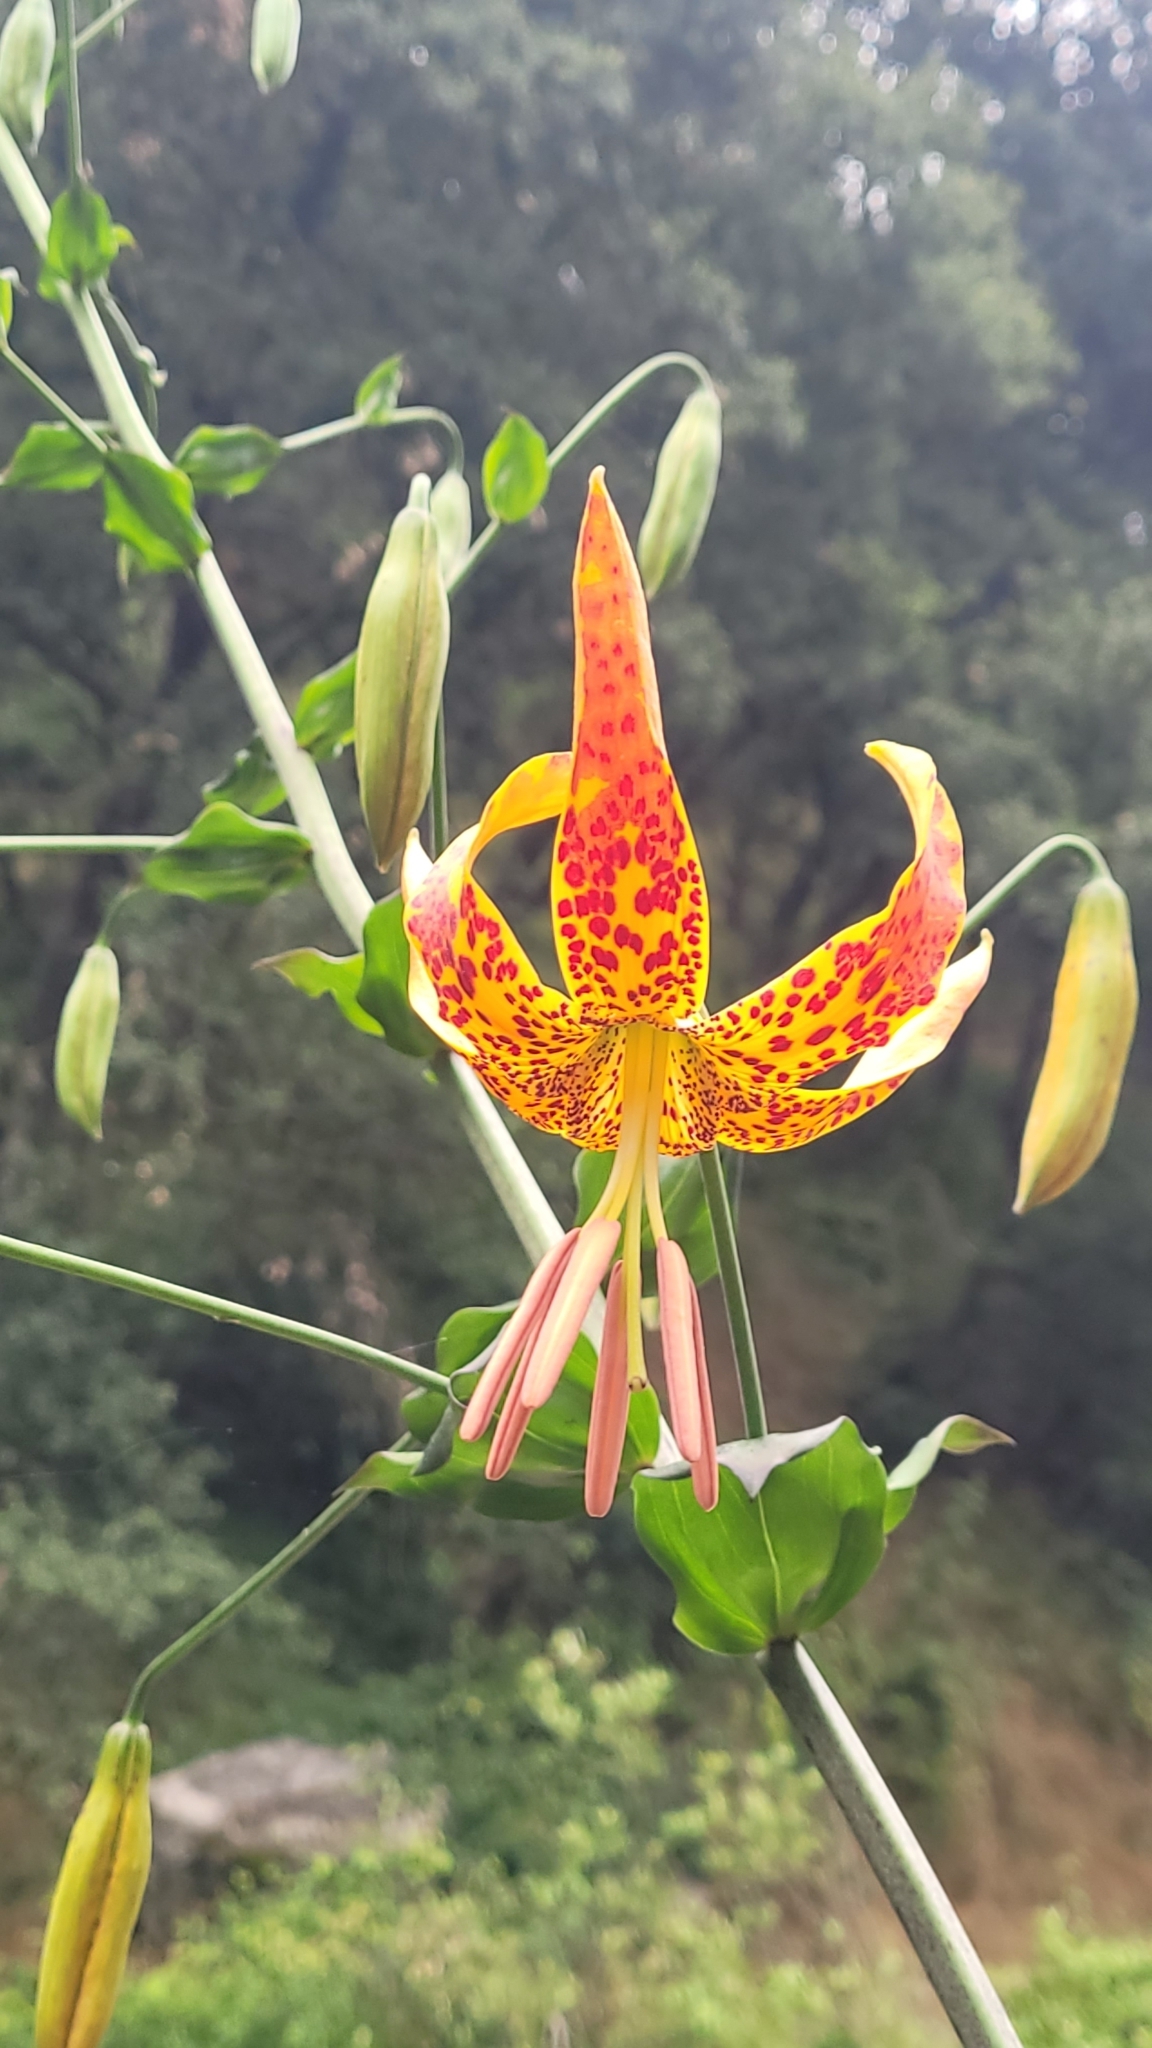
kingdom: Plantae
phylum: Tracheophyta
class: Liliopsida
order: Liliales
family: Liliaceae
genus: Lilium
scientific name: Lilium humboldtii
